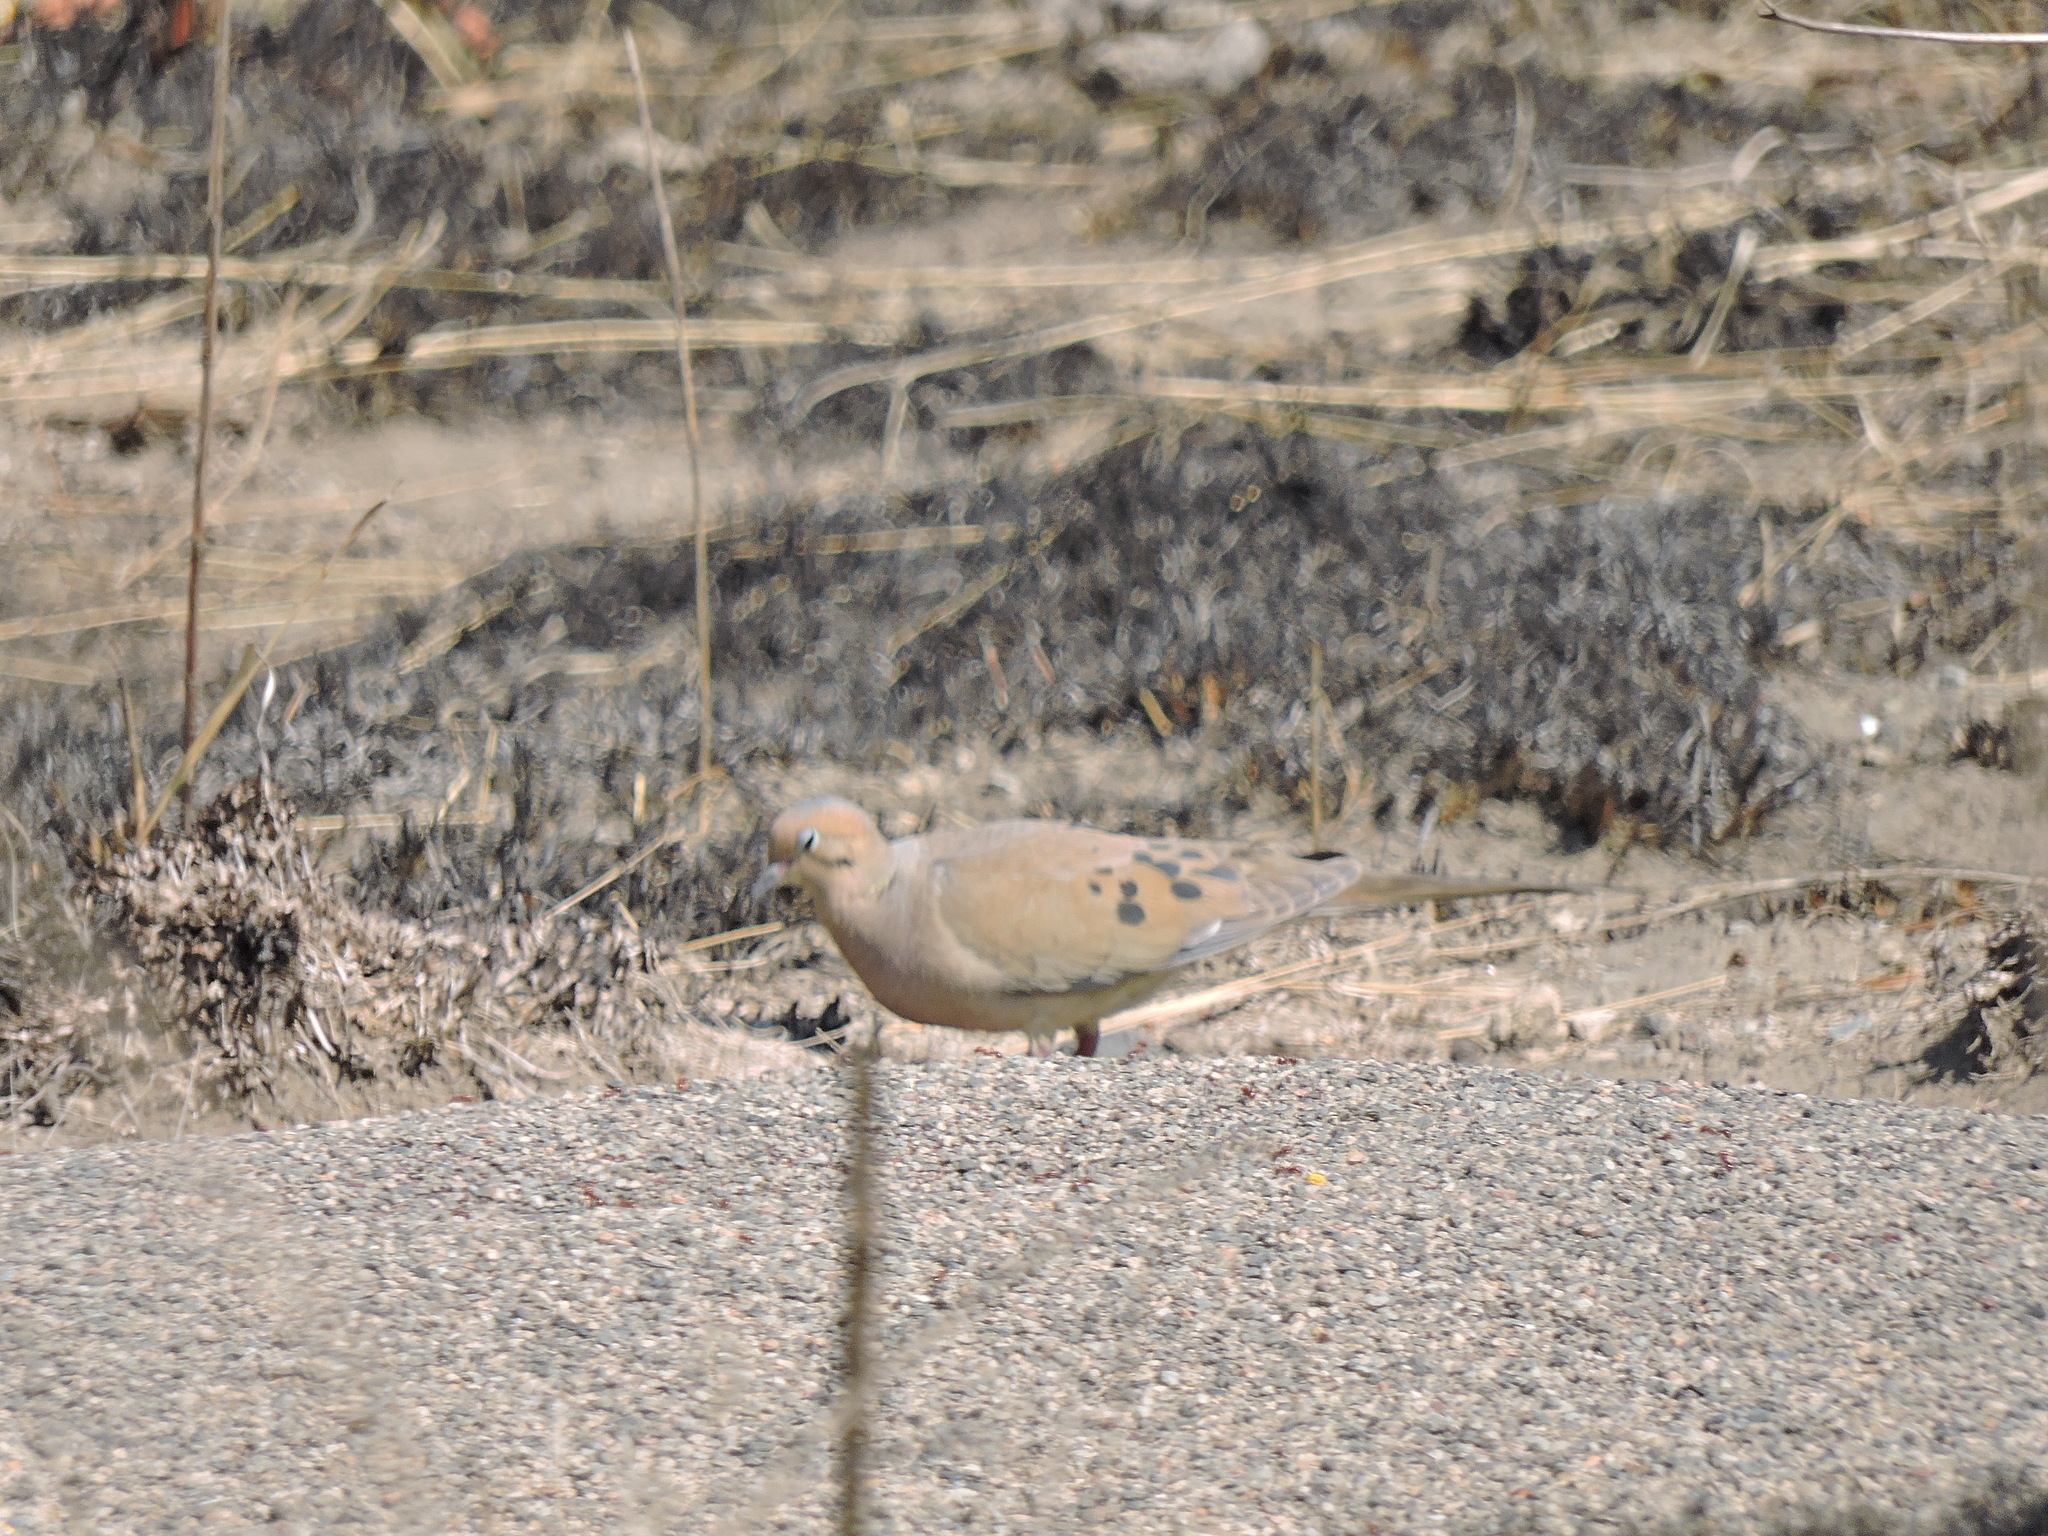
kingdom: Animalia
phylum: Chordata
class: Aves
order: Columbiformes
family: Columbidae
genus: Zenaida
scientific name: Zenaida macroura
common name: Mourning dove
